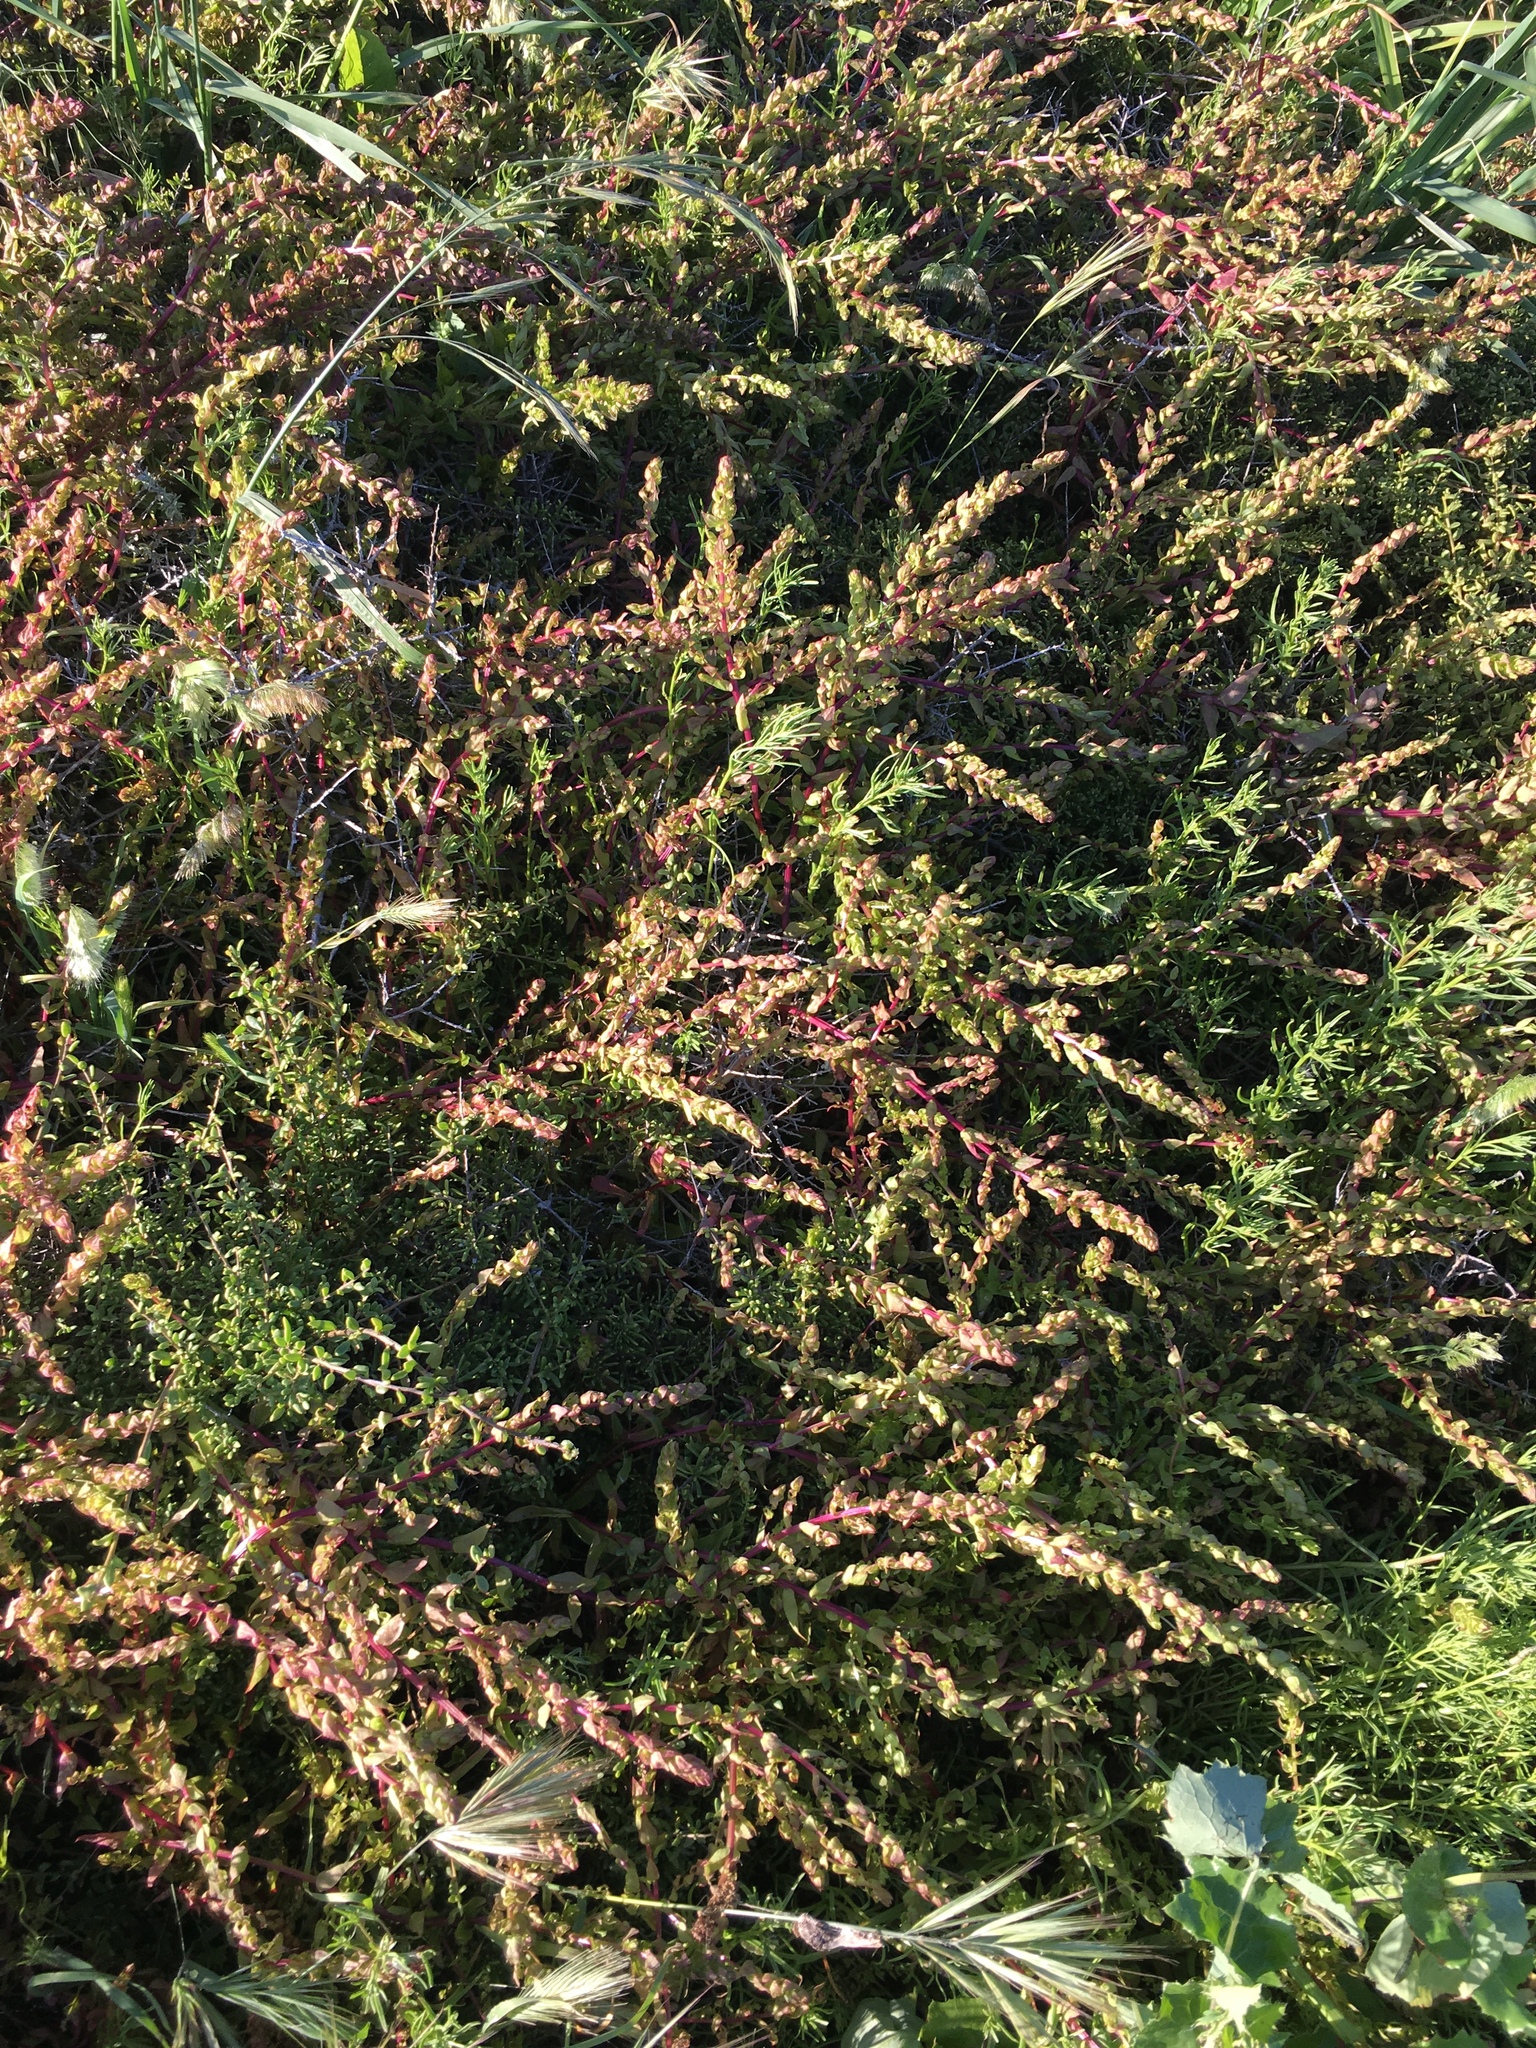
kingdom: Plantae
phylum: Tracheophyta
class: Magnoliopsida
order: Caryophyllales
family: Amaranthaceae
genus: Aphanisma
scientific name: Aphanisma blitoides
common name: Aphanisma
